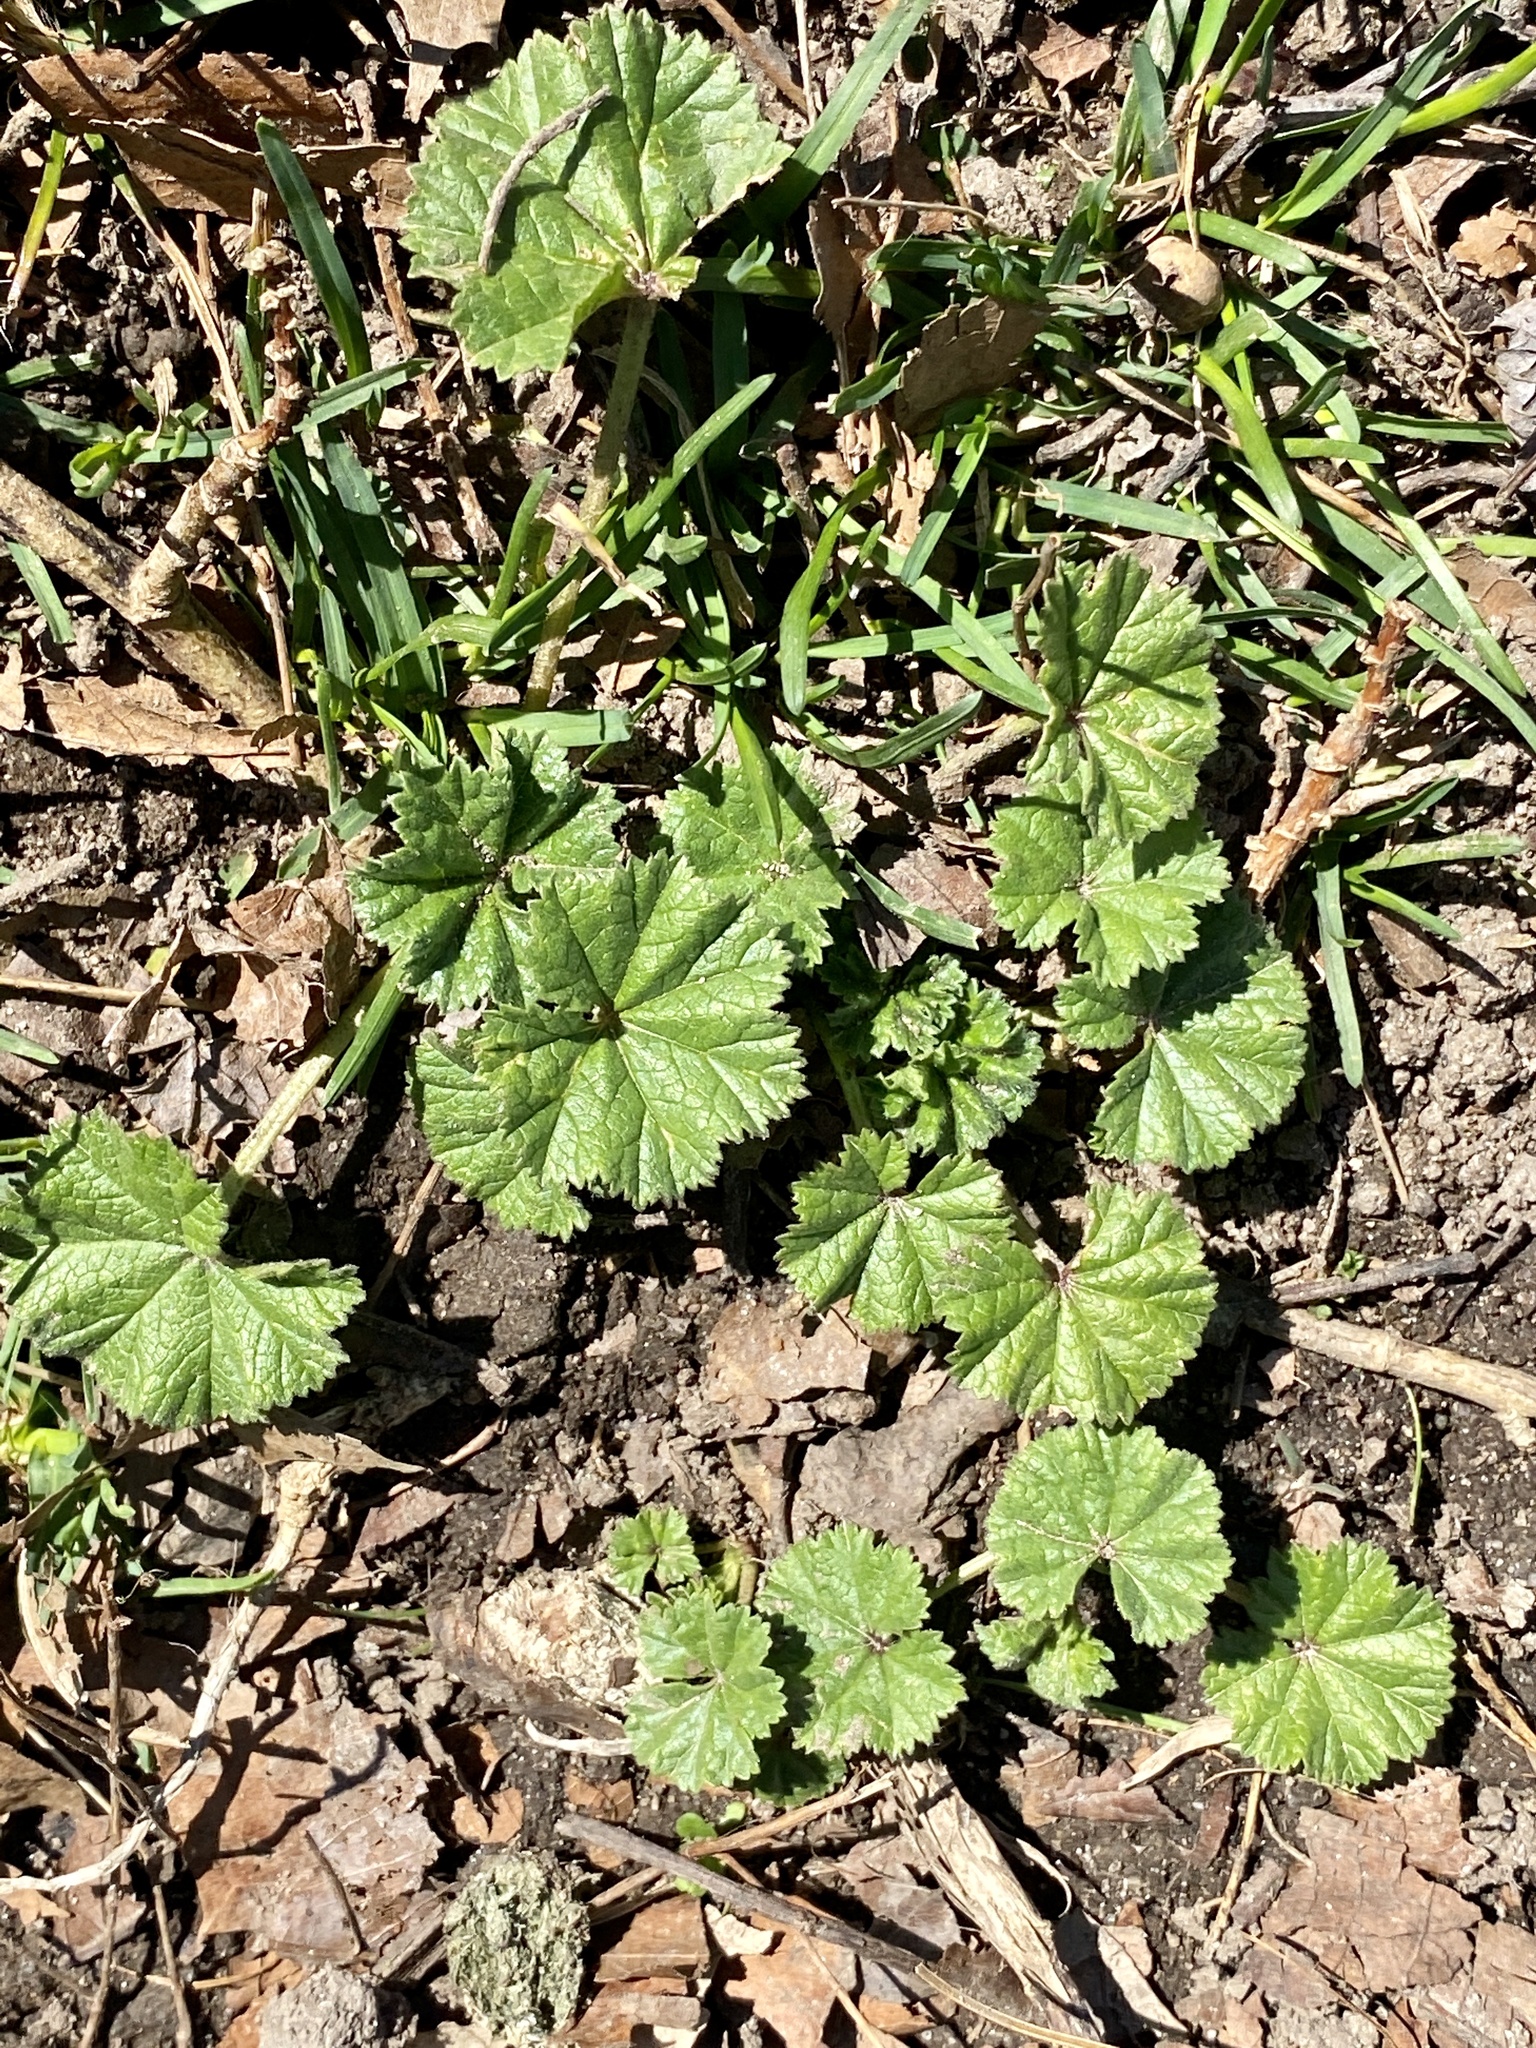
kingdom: Plantae
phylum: Tracheophyta
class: Magnoliopsida
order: Malvales
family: Malvaceae
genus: Malva
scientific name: Malva neglecta
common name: Common mallow
